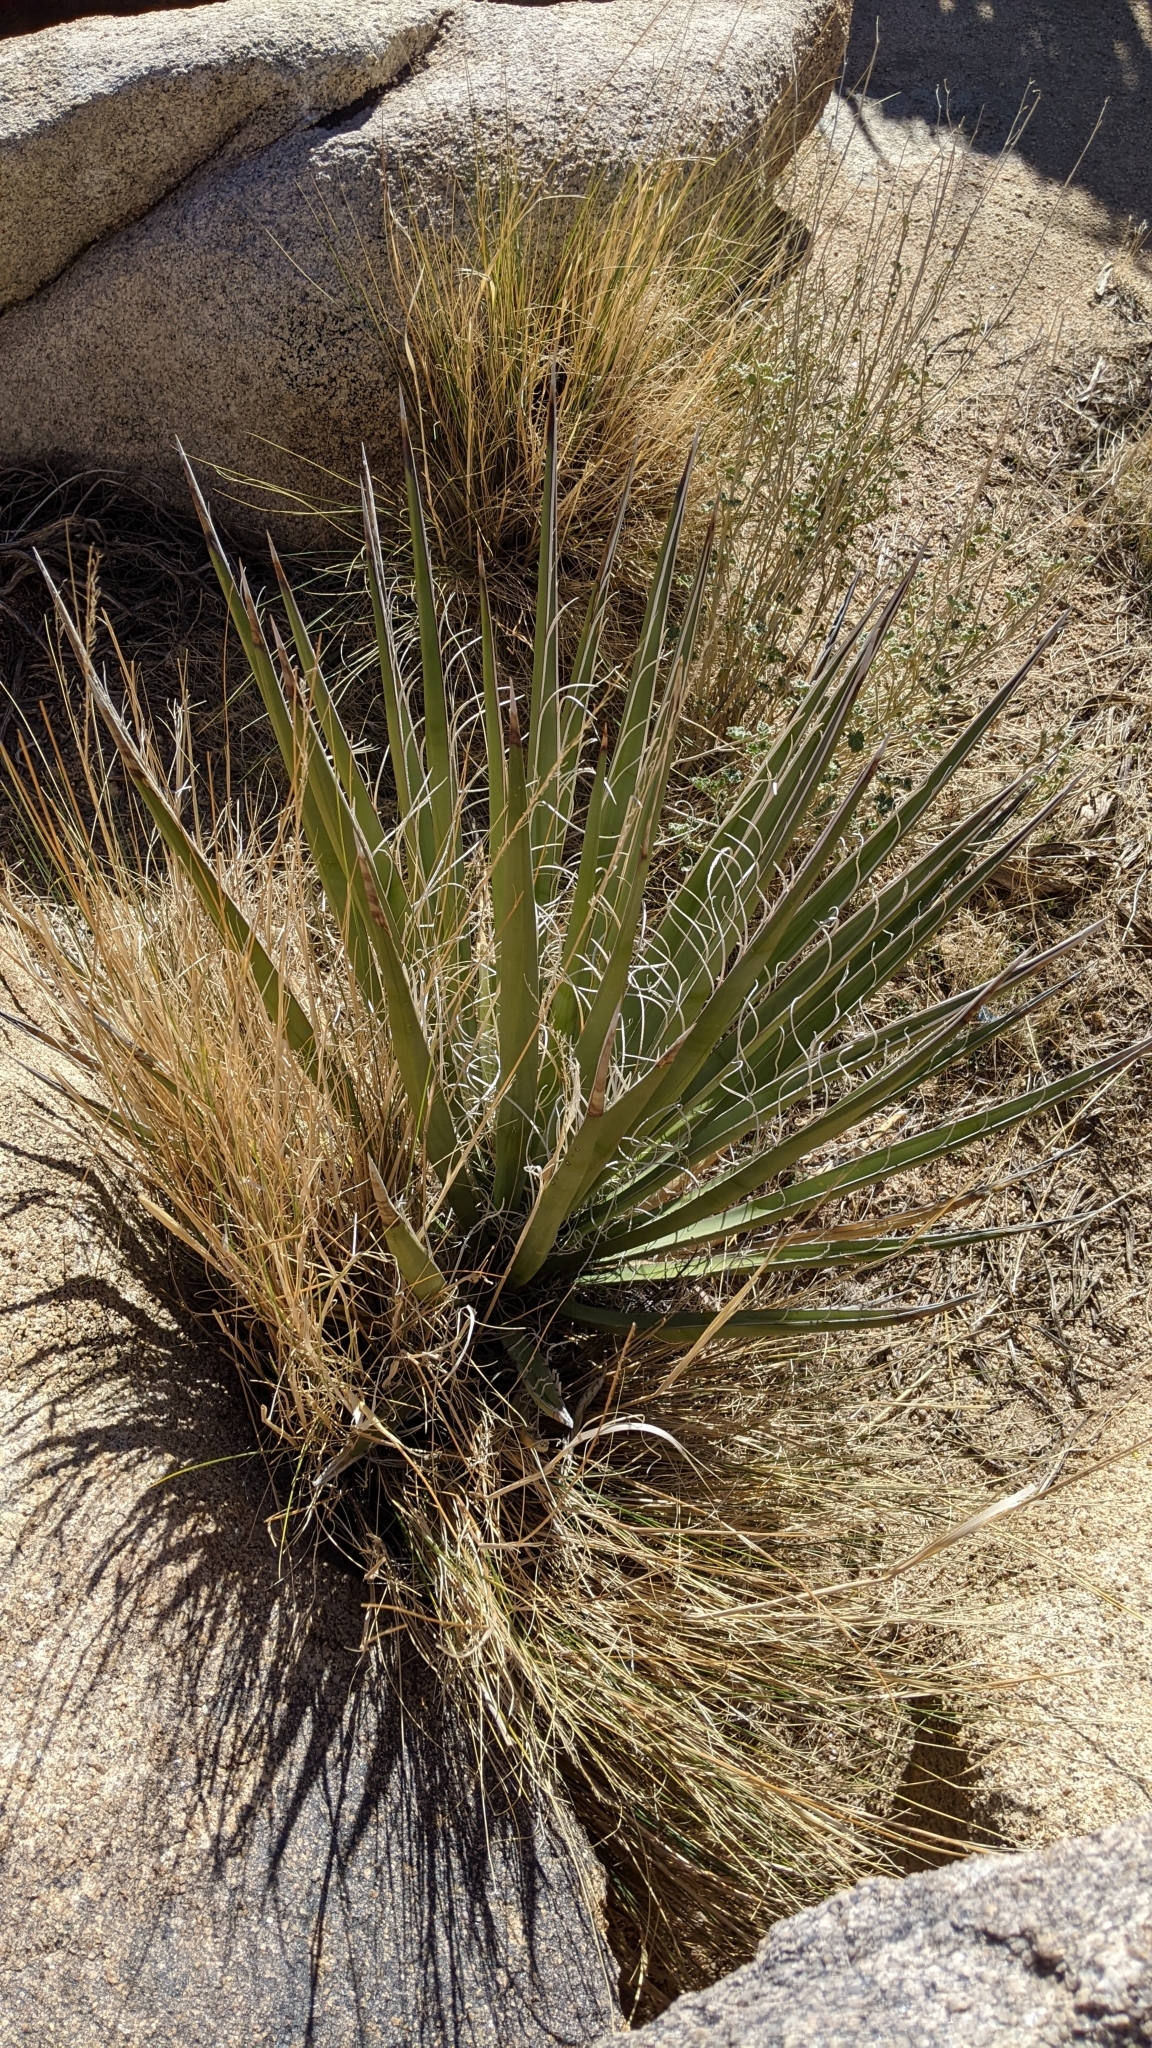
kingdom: Plantae
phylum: Tracheophyta
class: Liliopsida
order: Asparagales
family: Asparagaceae
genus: Yucca
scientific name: Yucca schidigera
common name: Mojave yucca
